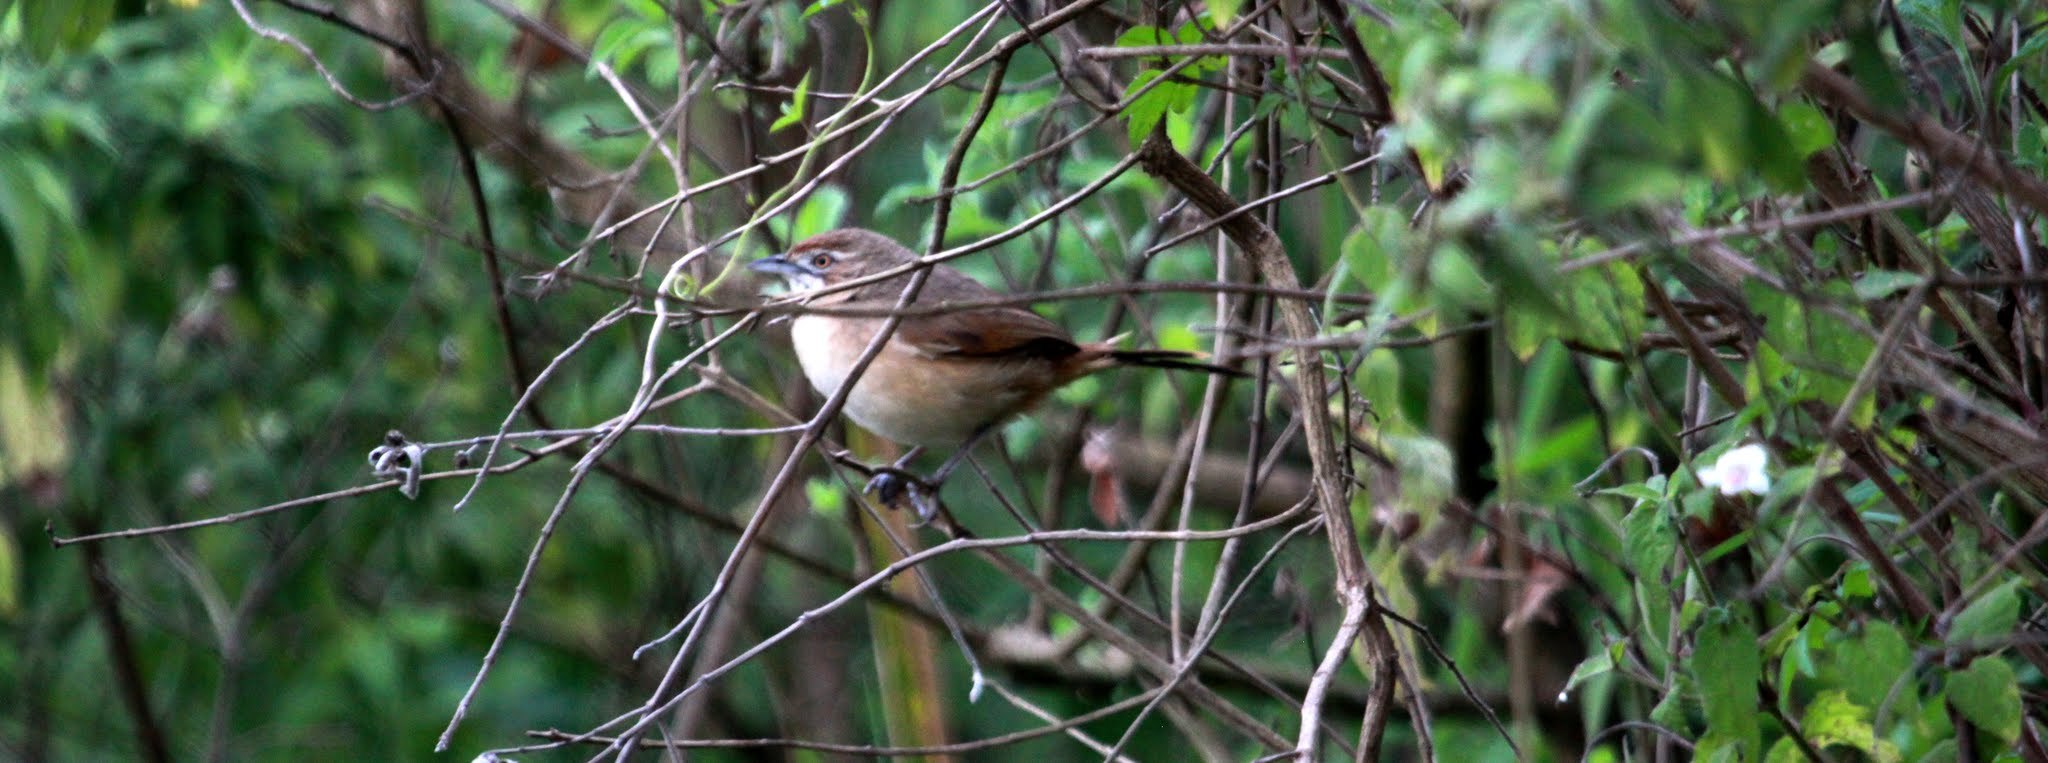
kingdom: Animalia
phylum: Chordata
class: Aves
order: Passeriformes
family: Macrosphenidae
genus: Melocichla
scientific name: Melocichla mentalis
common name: Moustached grass warbler
